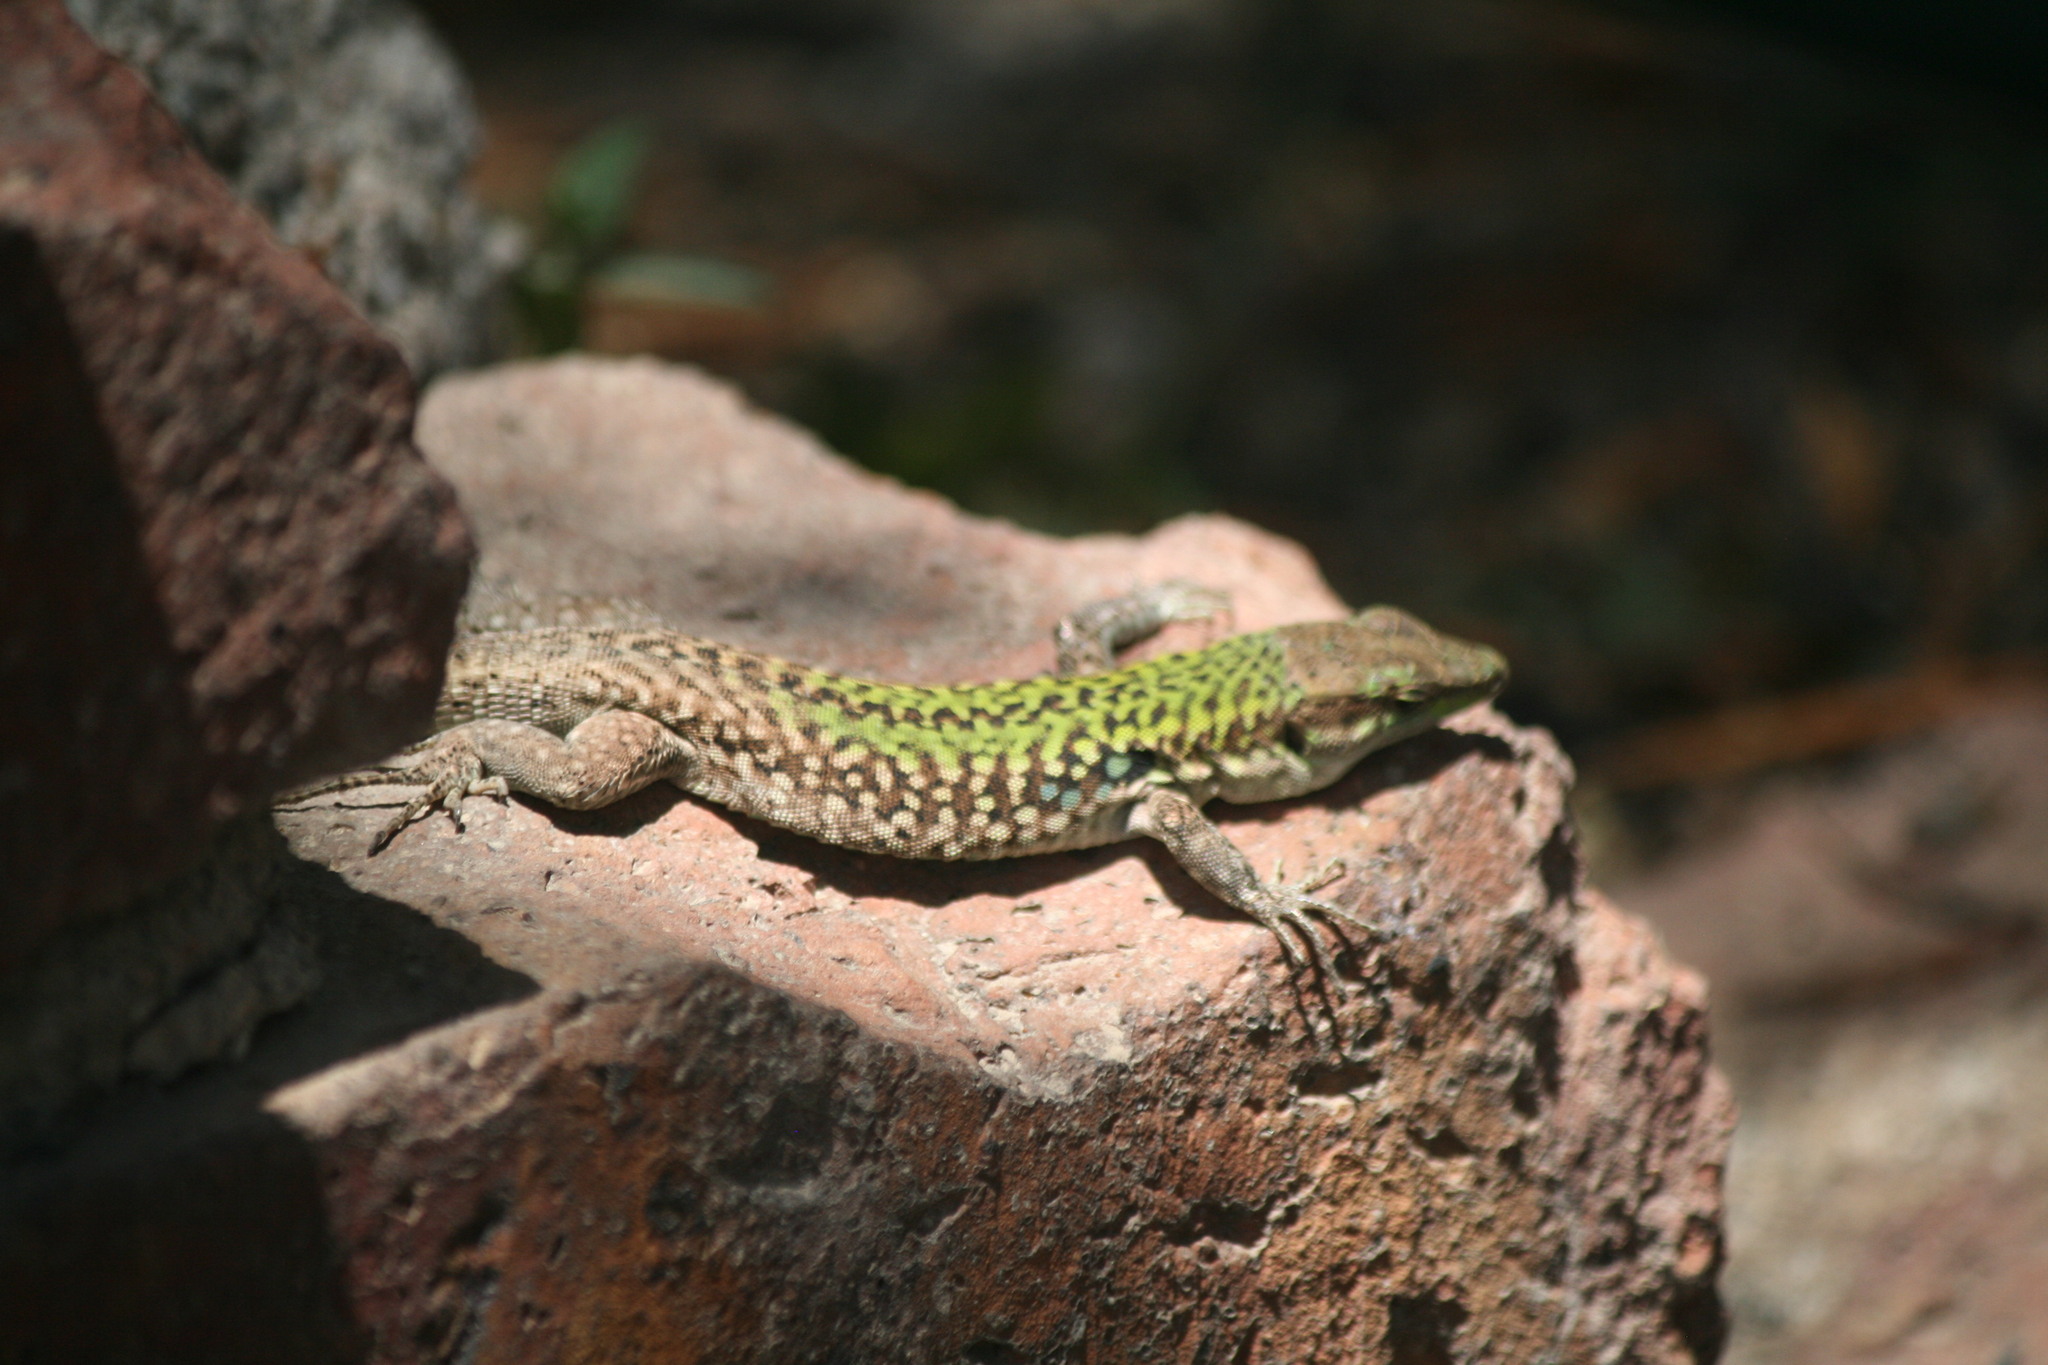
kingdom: Animalia
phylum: Chordata
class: Squamata
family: Lacertidae
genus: Podarcis
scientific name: Podarcis siculus
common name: Italian wall lizard
